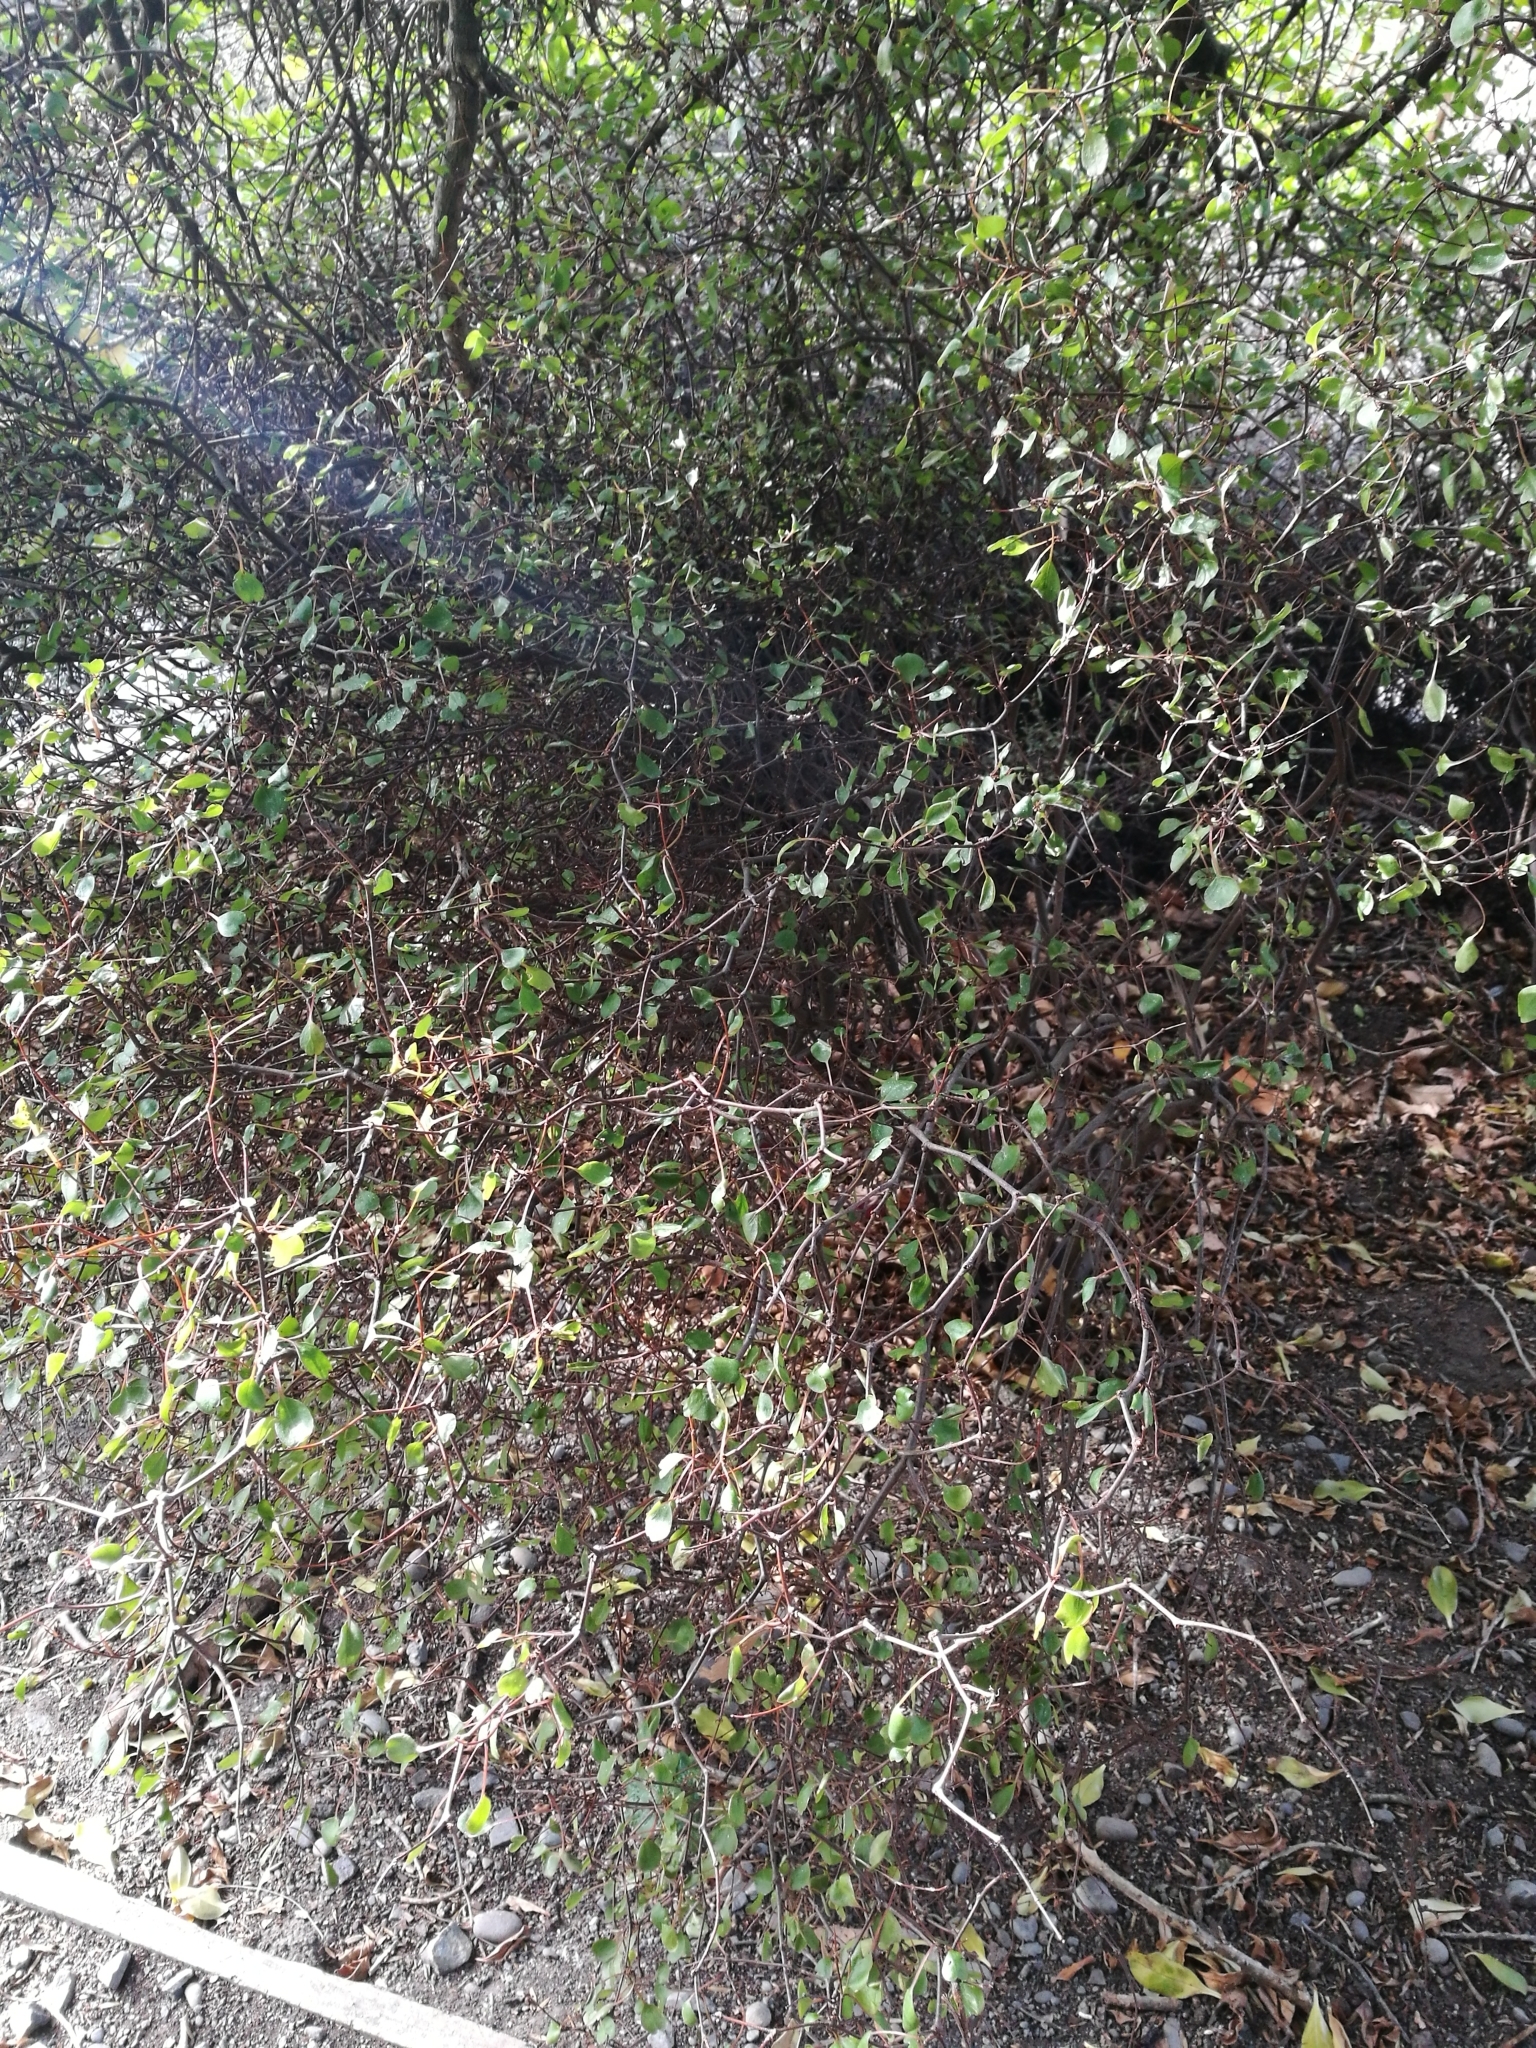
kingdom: Plantae
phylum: Tracheophyta
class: Magnoliopsida
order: Asterales
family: Argophyllaceae
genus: Corokia
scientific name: Corokia cotoneaster
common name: Wire nettingbush
